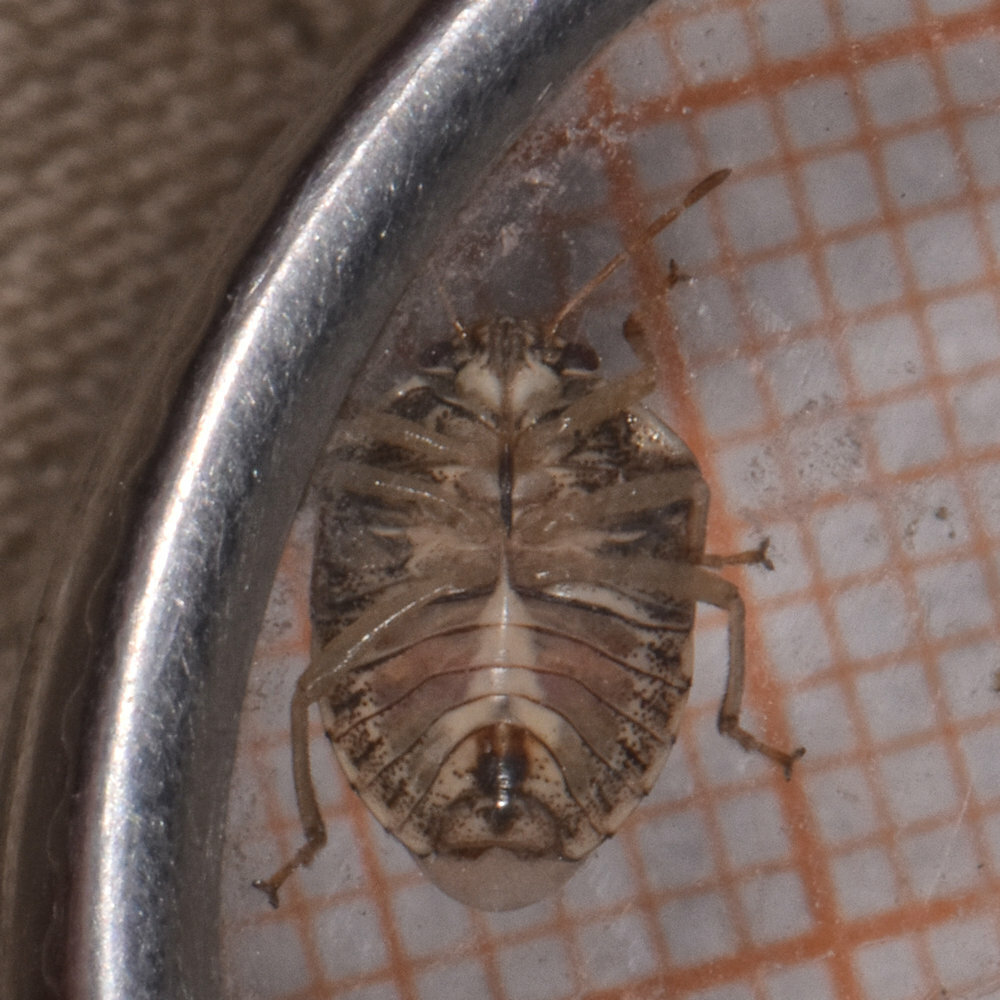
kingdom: Animalia
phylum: Arthropoda
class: Insecta
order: Hemiptera
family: Pentatomidae
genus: Menida
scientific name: Menida
